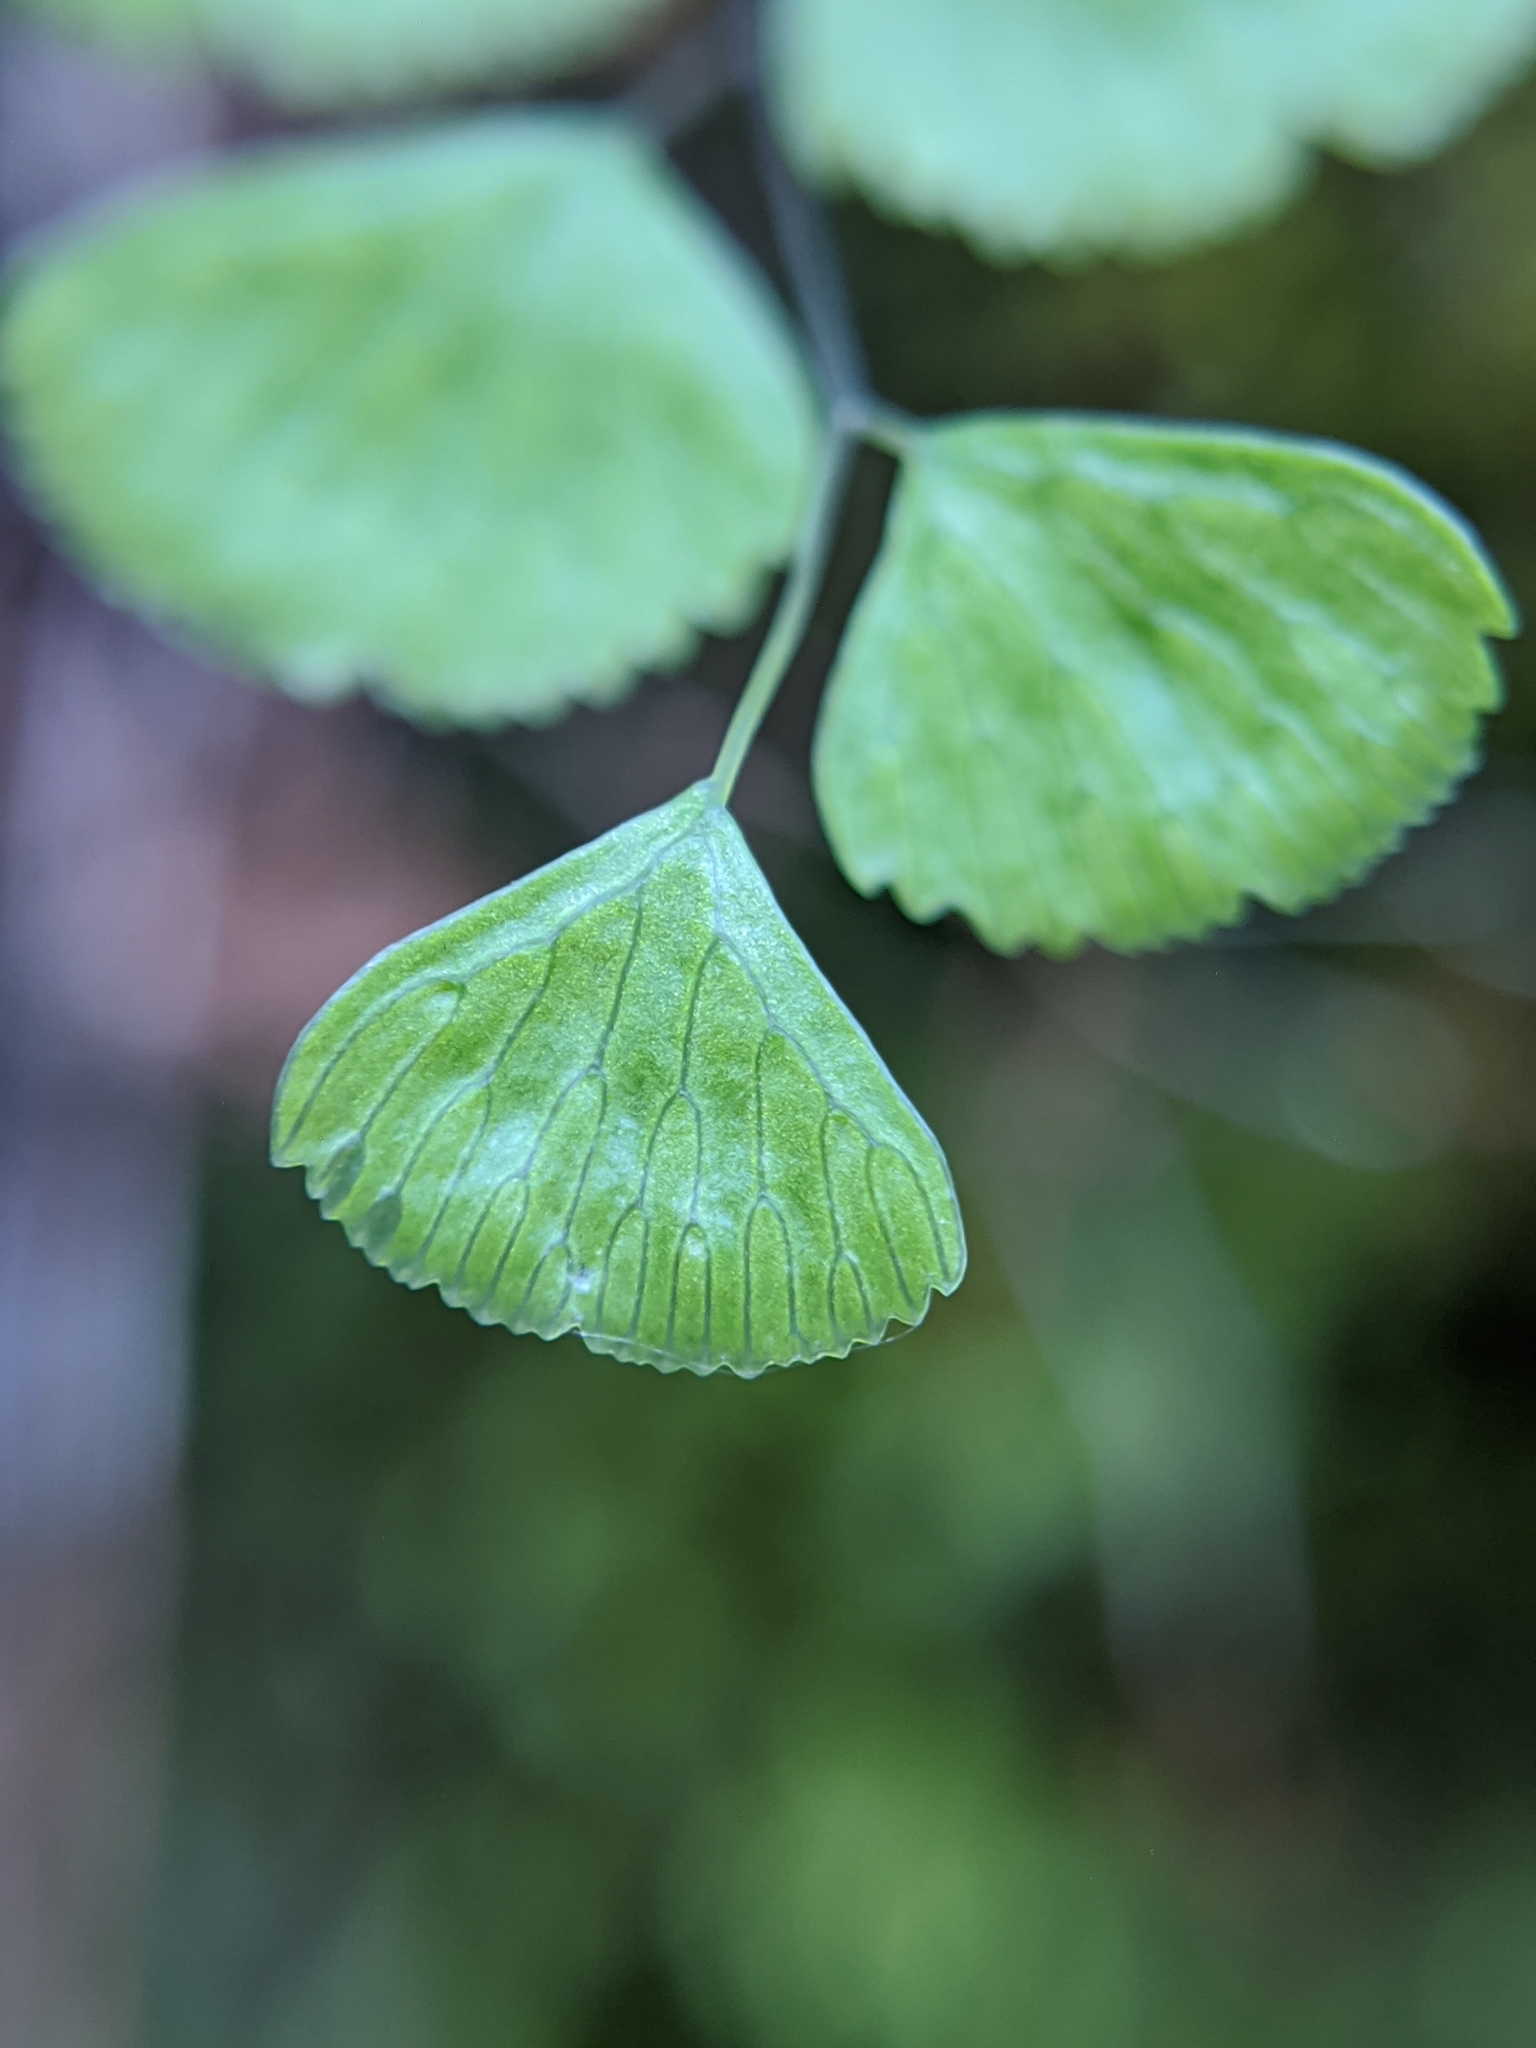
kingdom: Plantae
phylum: Tracheophyta
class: Polypodiopsida
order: Polypodiales
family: Pteridaceae
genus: Adiantum
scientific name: Adiantum jordanii
